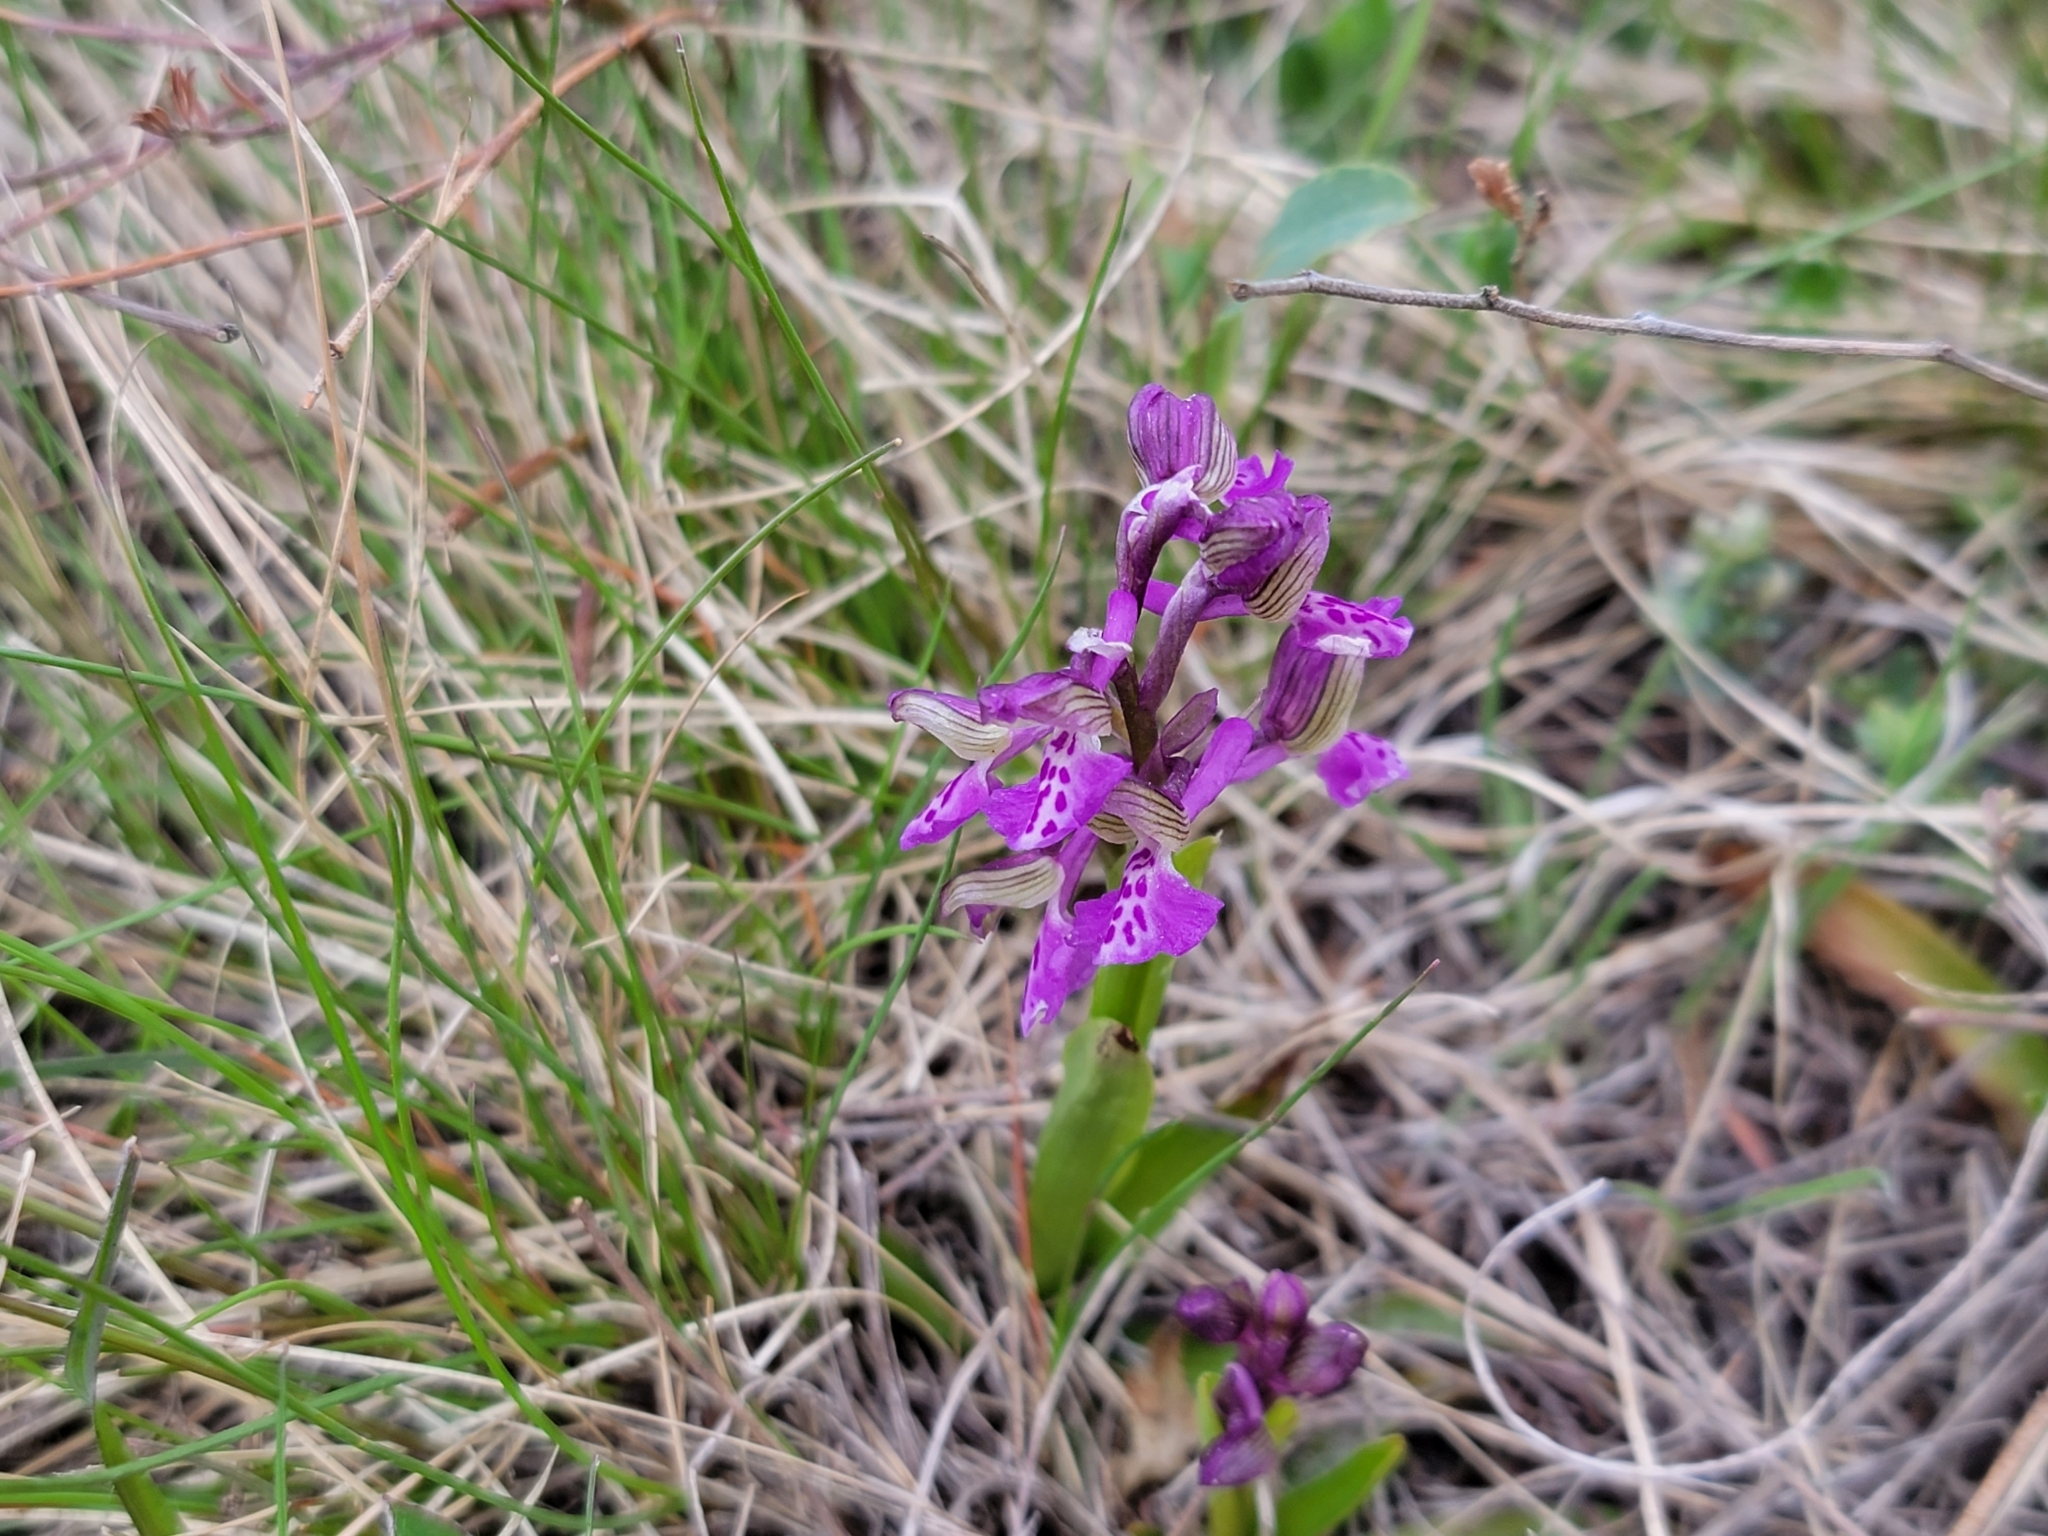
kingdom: Plantae
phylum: Tracheophyta
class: Liliopsida
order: Asparagales
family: Orchidaceae
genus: Anacamptis
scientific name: Anacamptis morio
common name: Green-winged orchid
